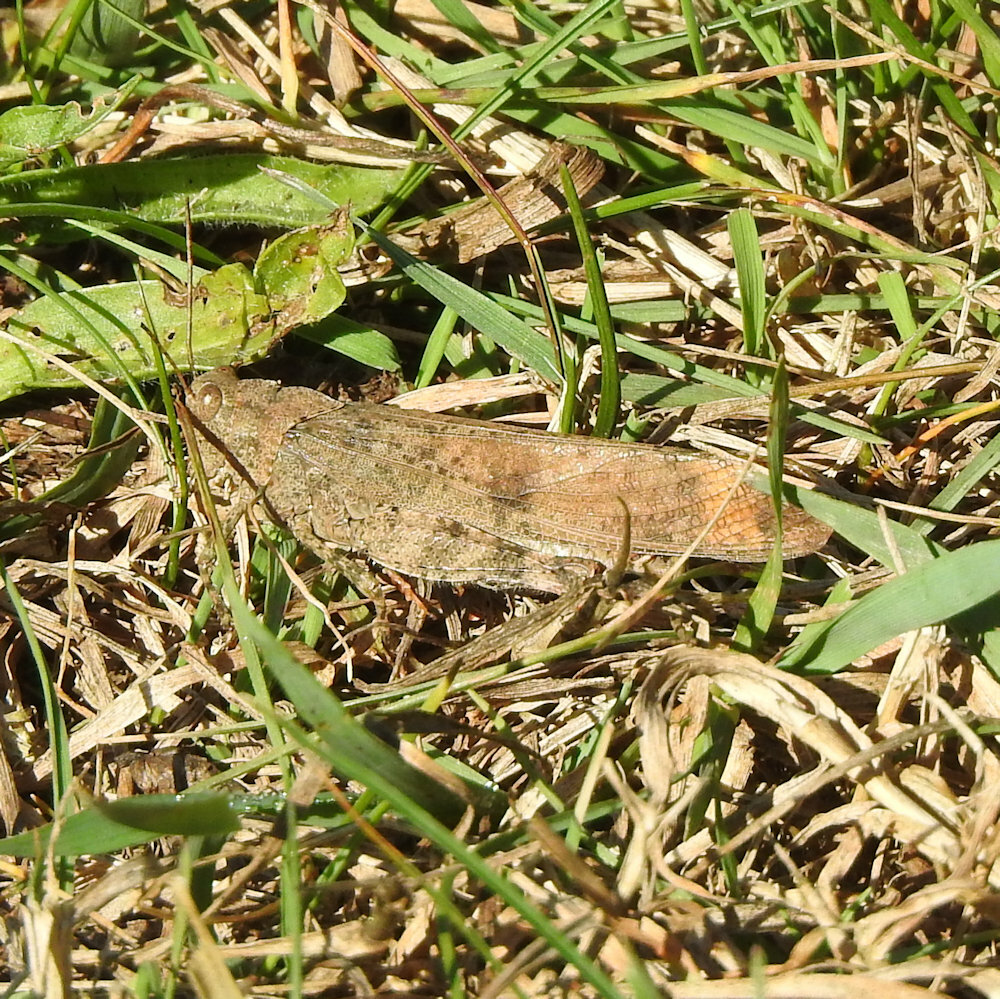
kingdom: Animalia
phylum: Arthropoda
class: Insecta
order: Orthoptera
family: Acrididae
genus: Dissosteira
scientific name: Dissosteira carolina
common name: Carolina grasshopper
